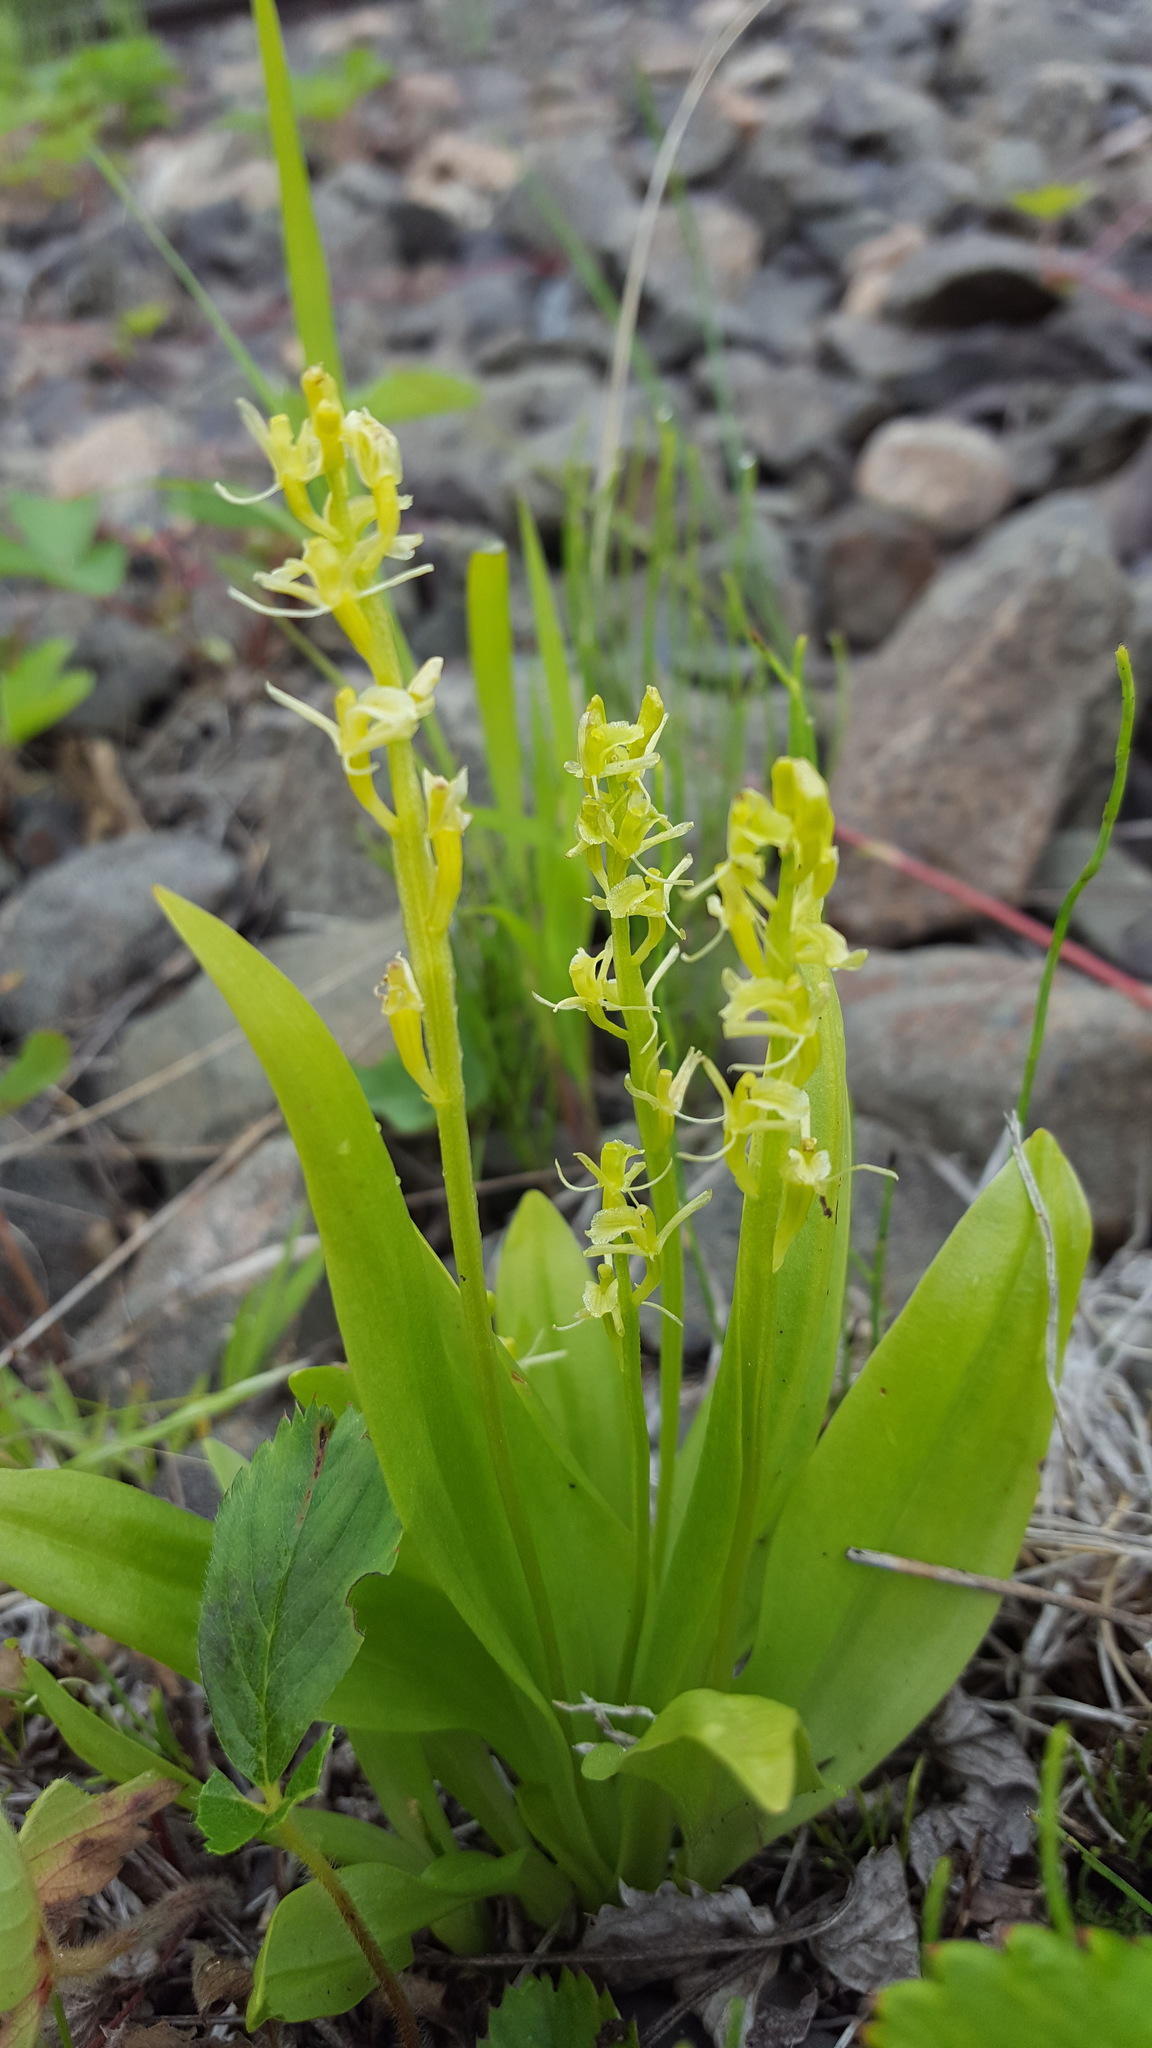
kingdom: Animalia
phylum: Arthropoda
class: Insecta
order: Coleoptera
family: Curculionidae
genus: Liparis
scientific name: Liparis loeselii
